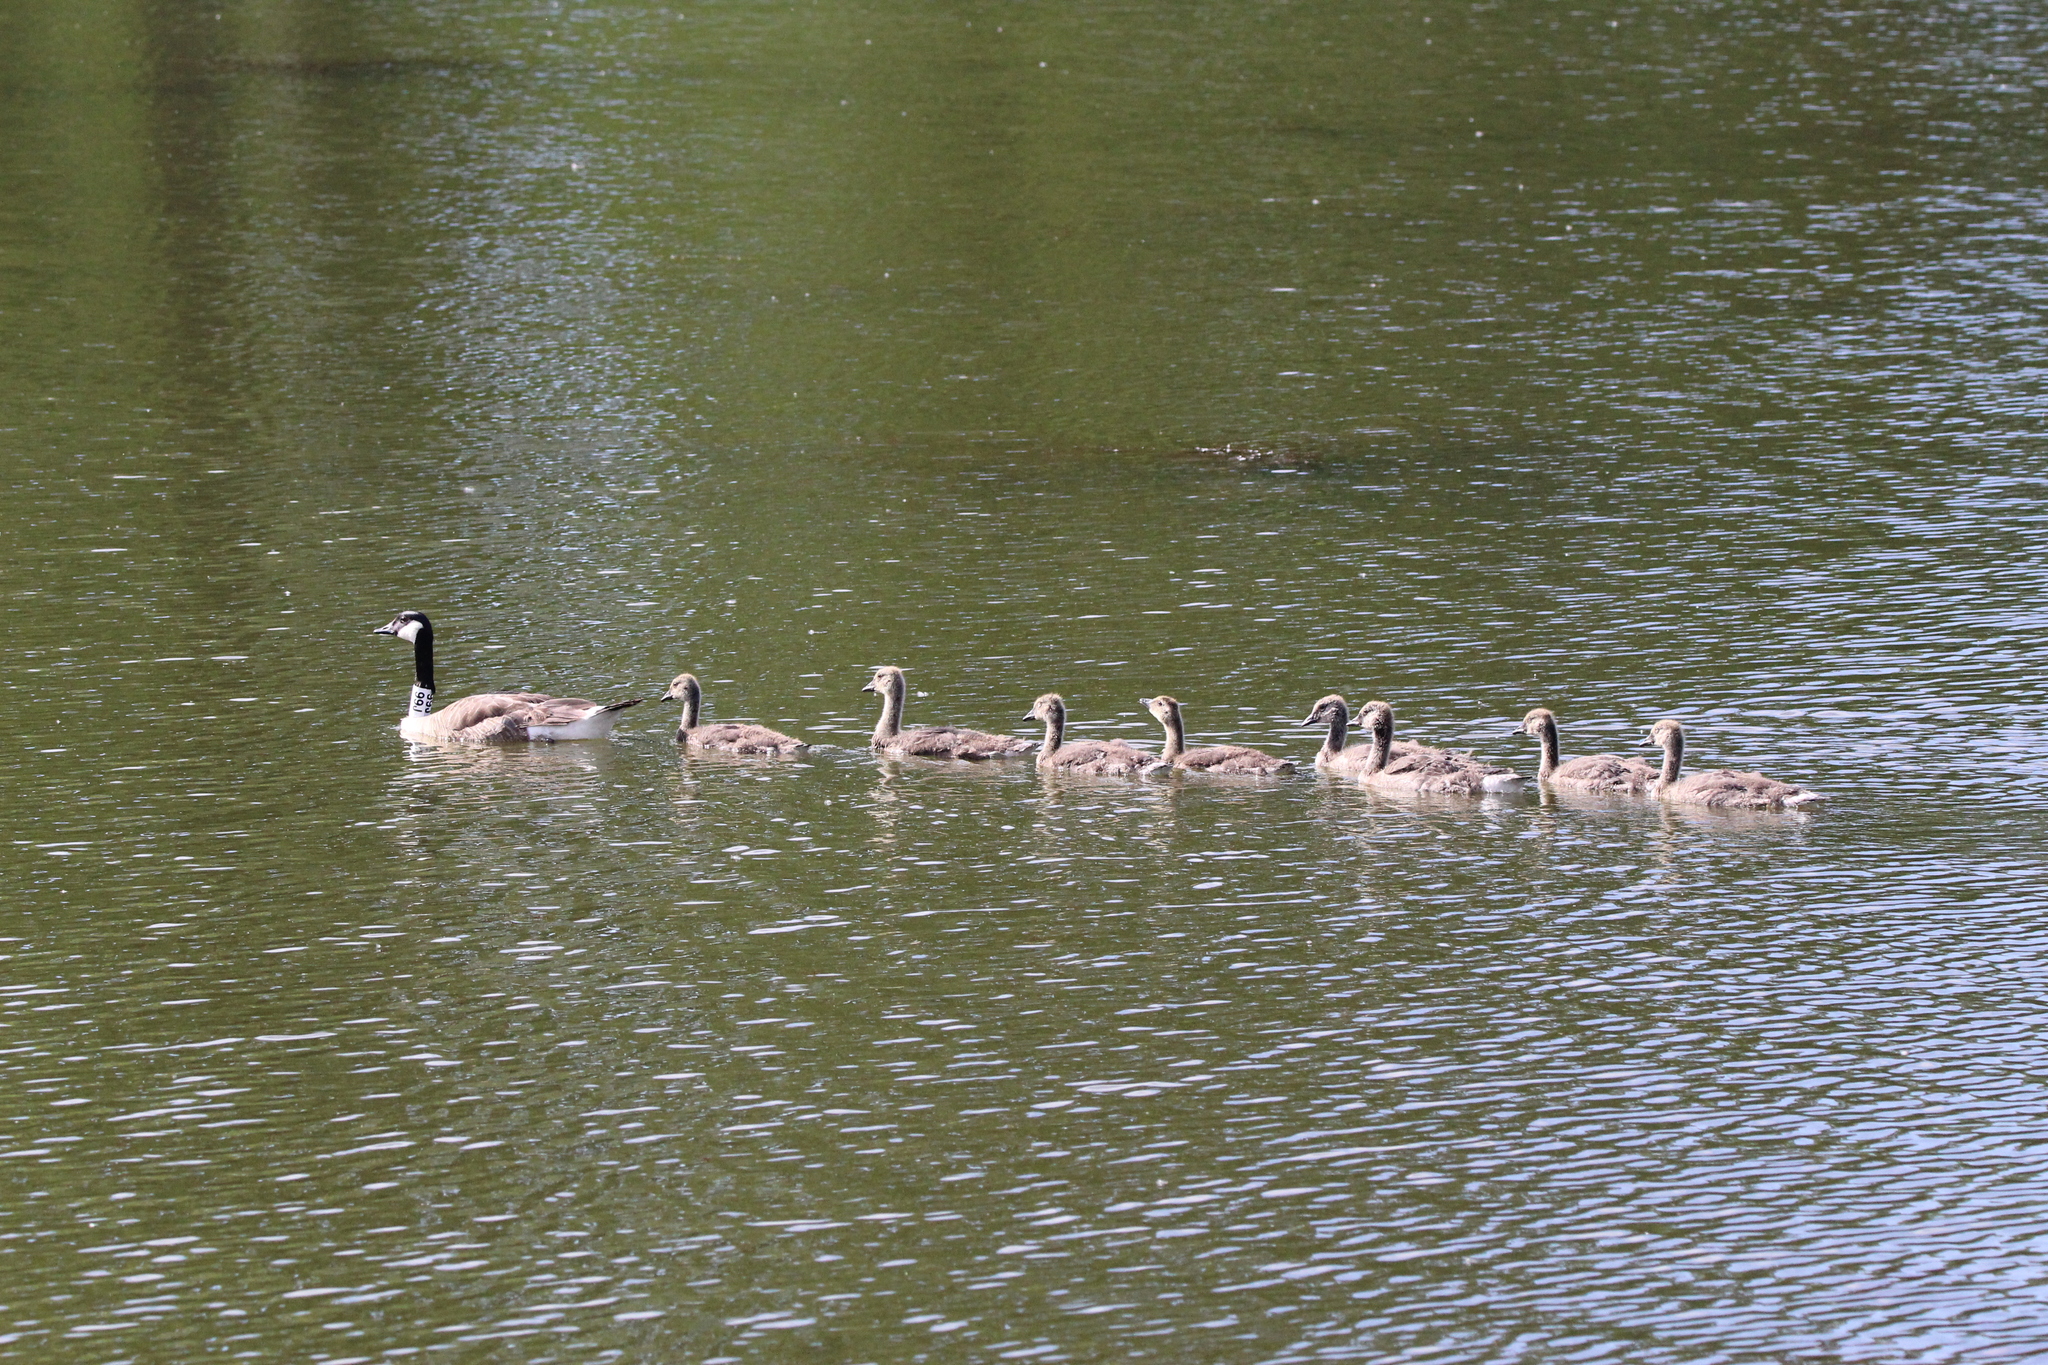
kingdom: Animalia
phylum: Chordata
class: Aves
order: Anseriformes
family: Anatidae
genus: Branta
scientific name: Branta canadensis
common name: Canada goose
